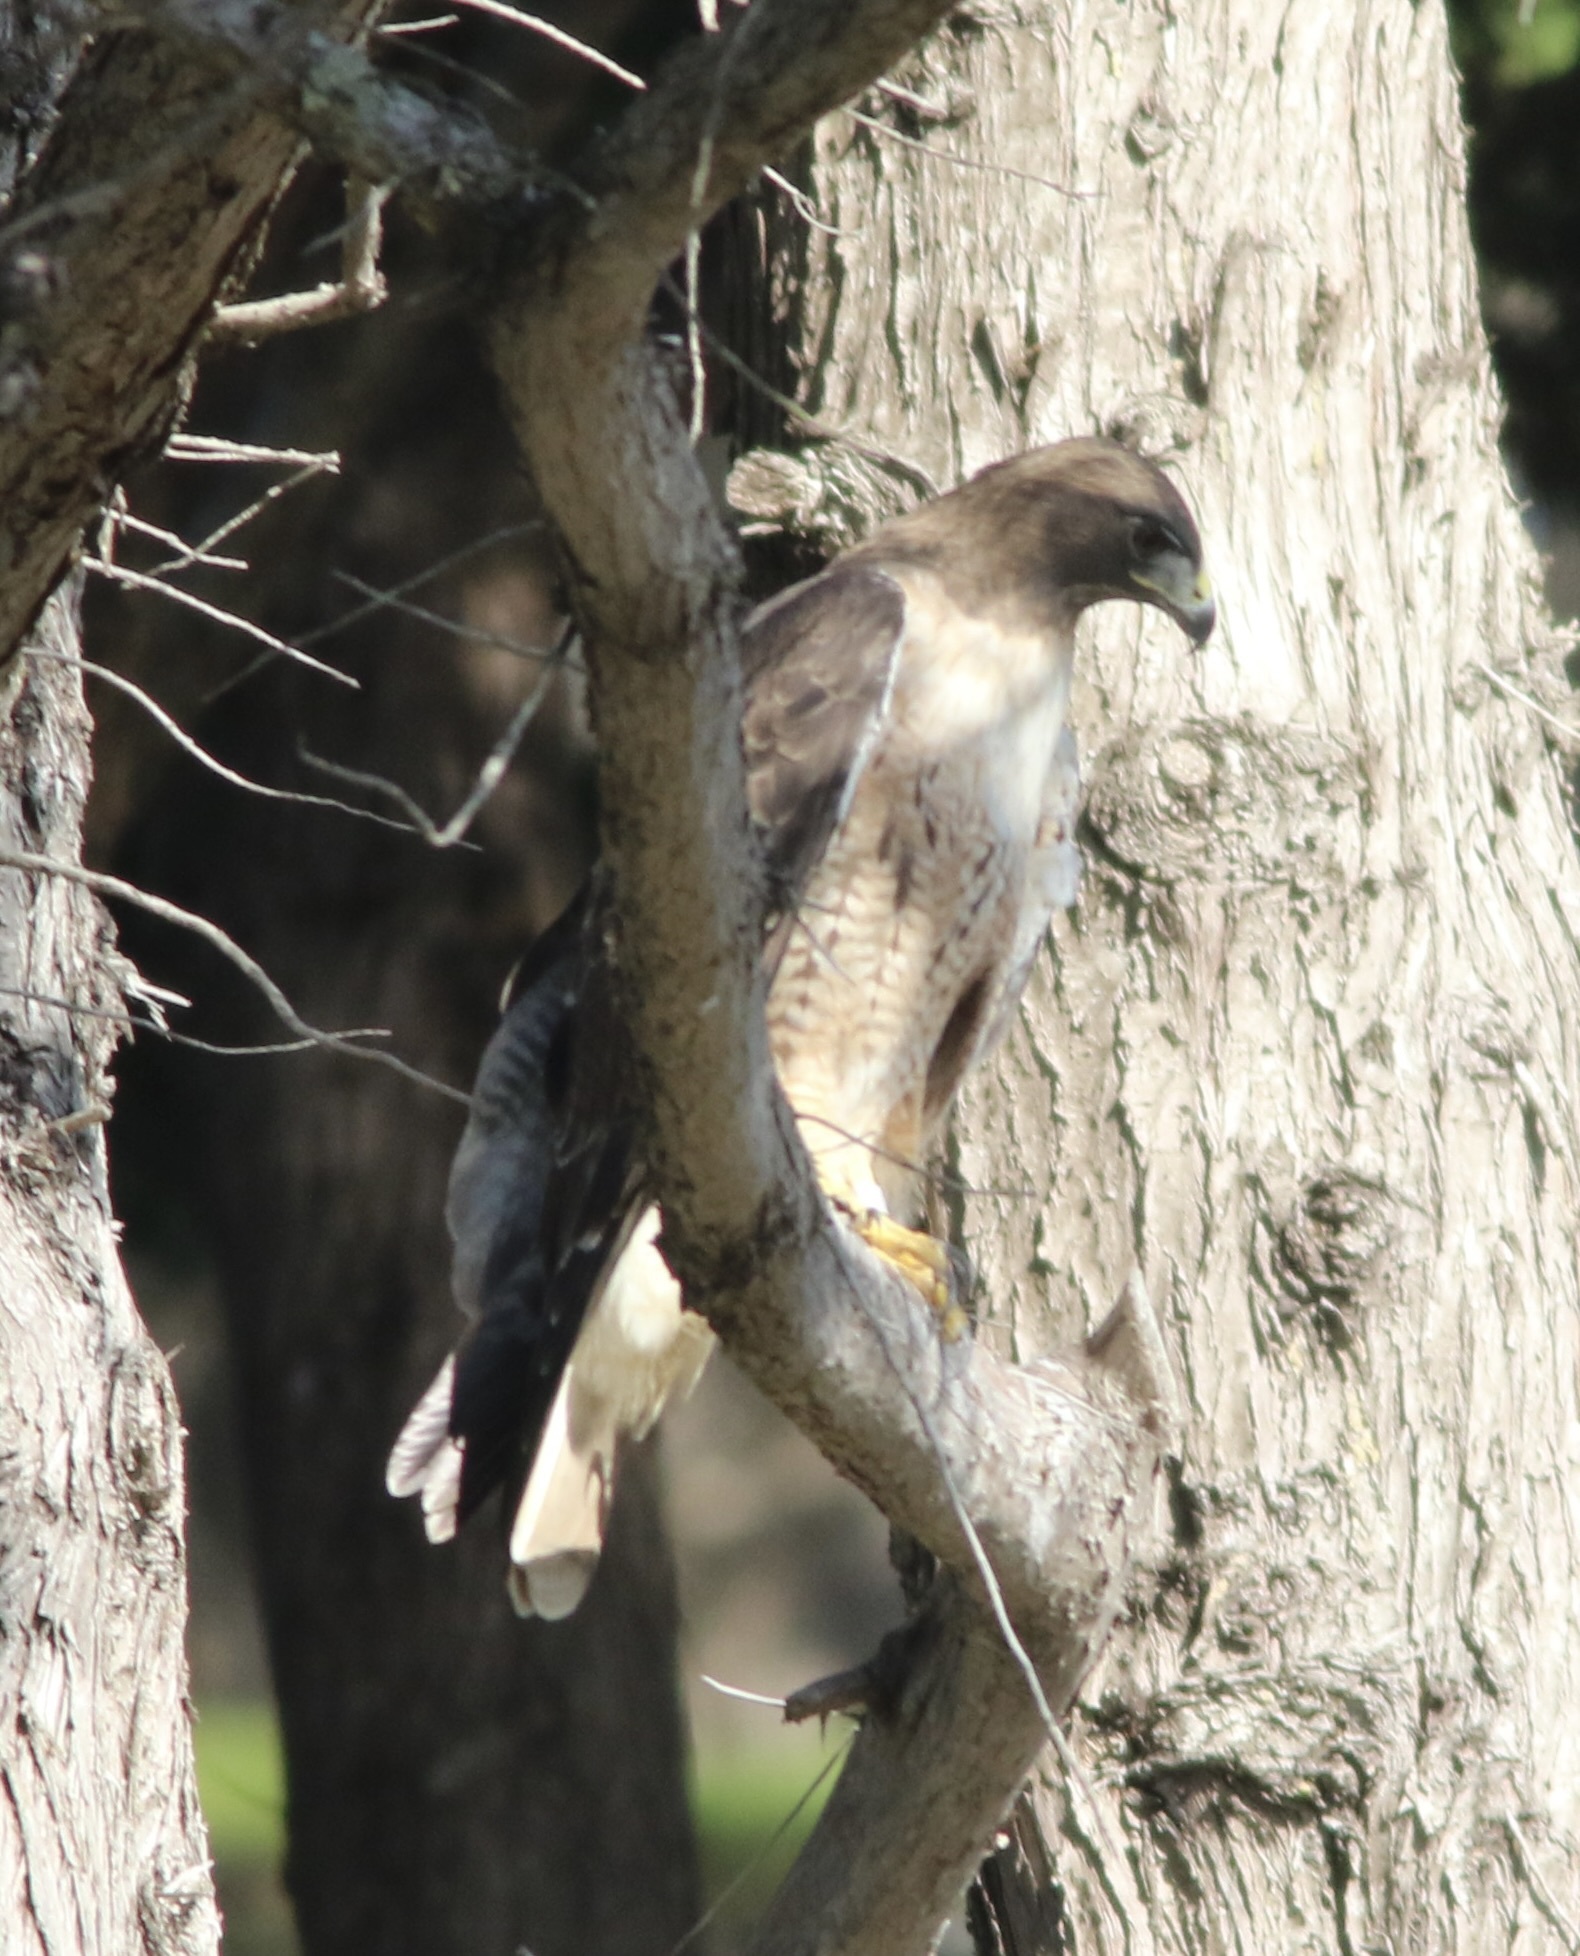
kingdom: Animalia
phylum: Chordata
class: Aves
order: Accipitriformes
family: Accipitridae
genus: Buteo
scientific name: Buteo jamaicensis
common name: Red-tailed hawk
